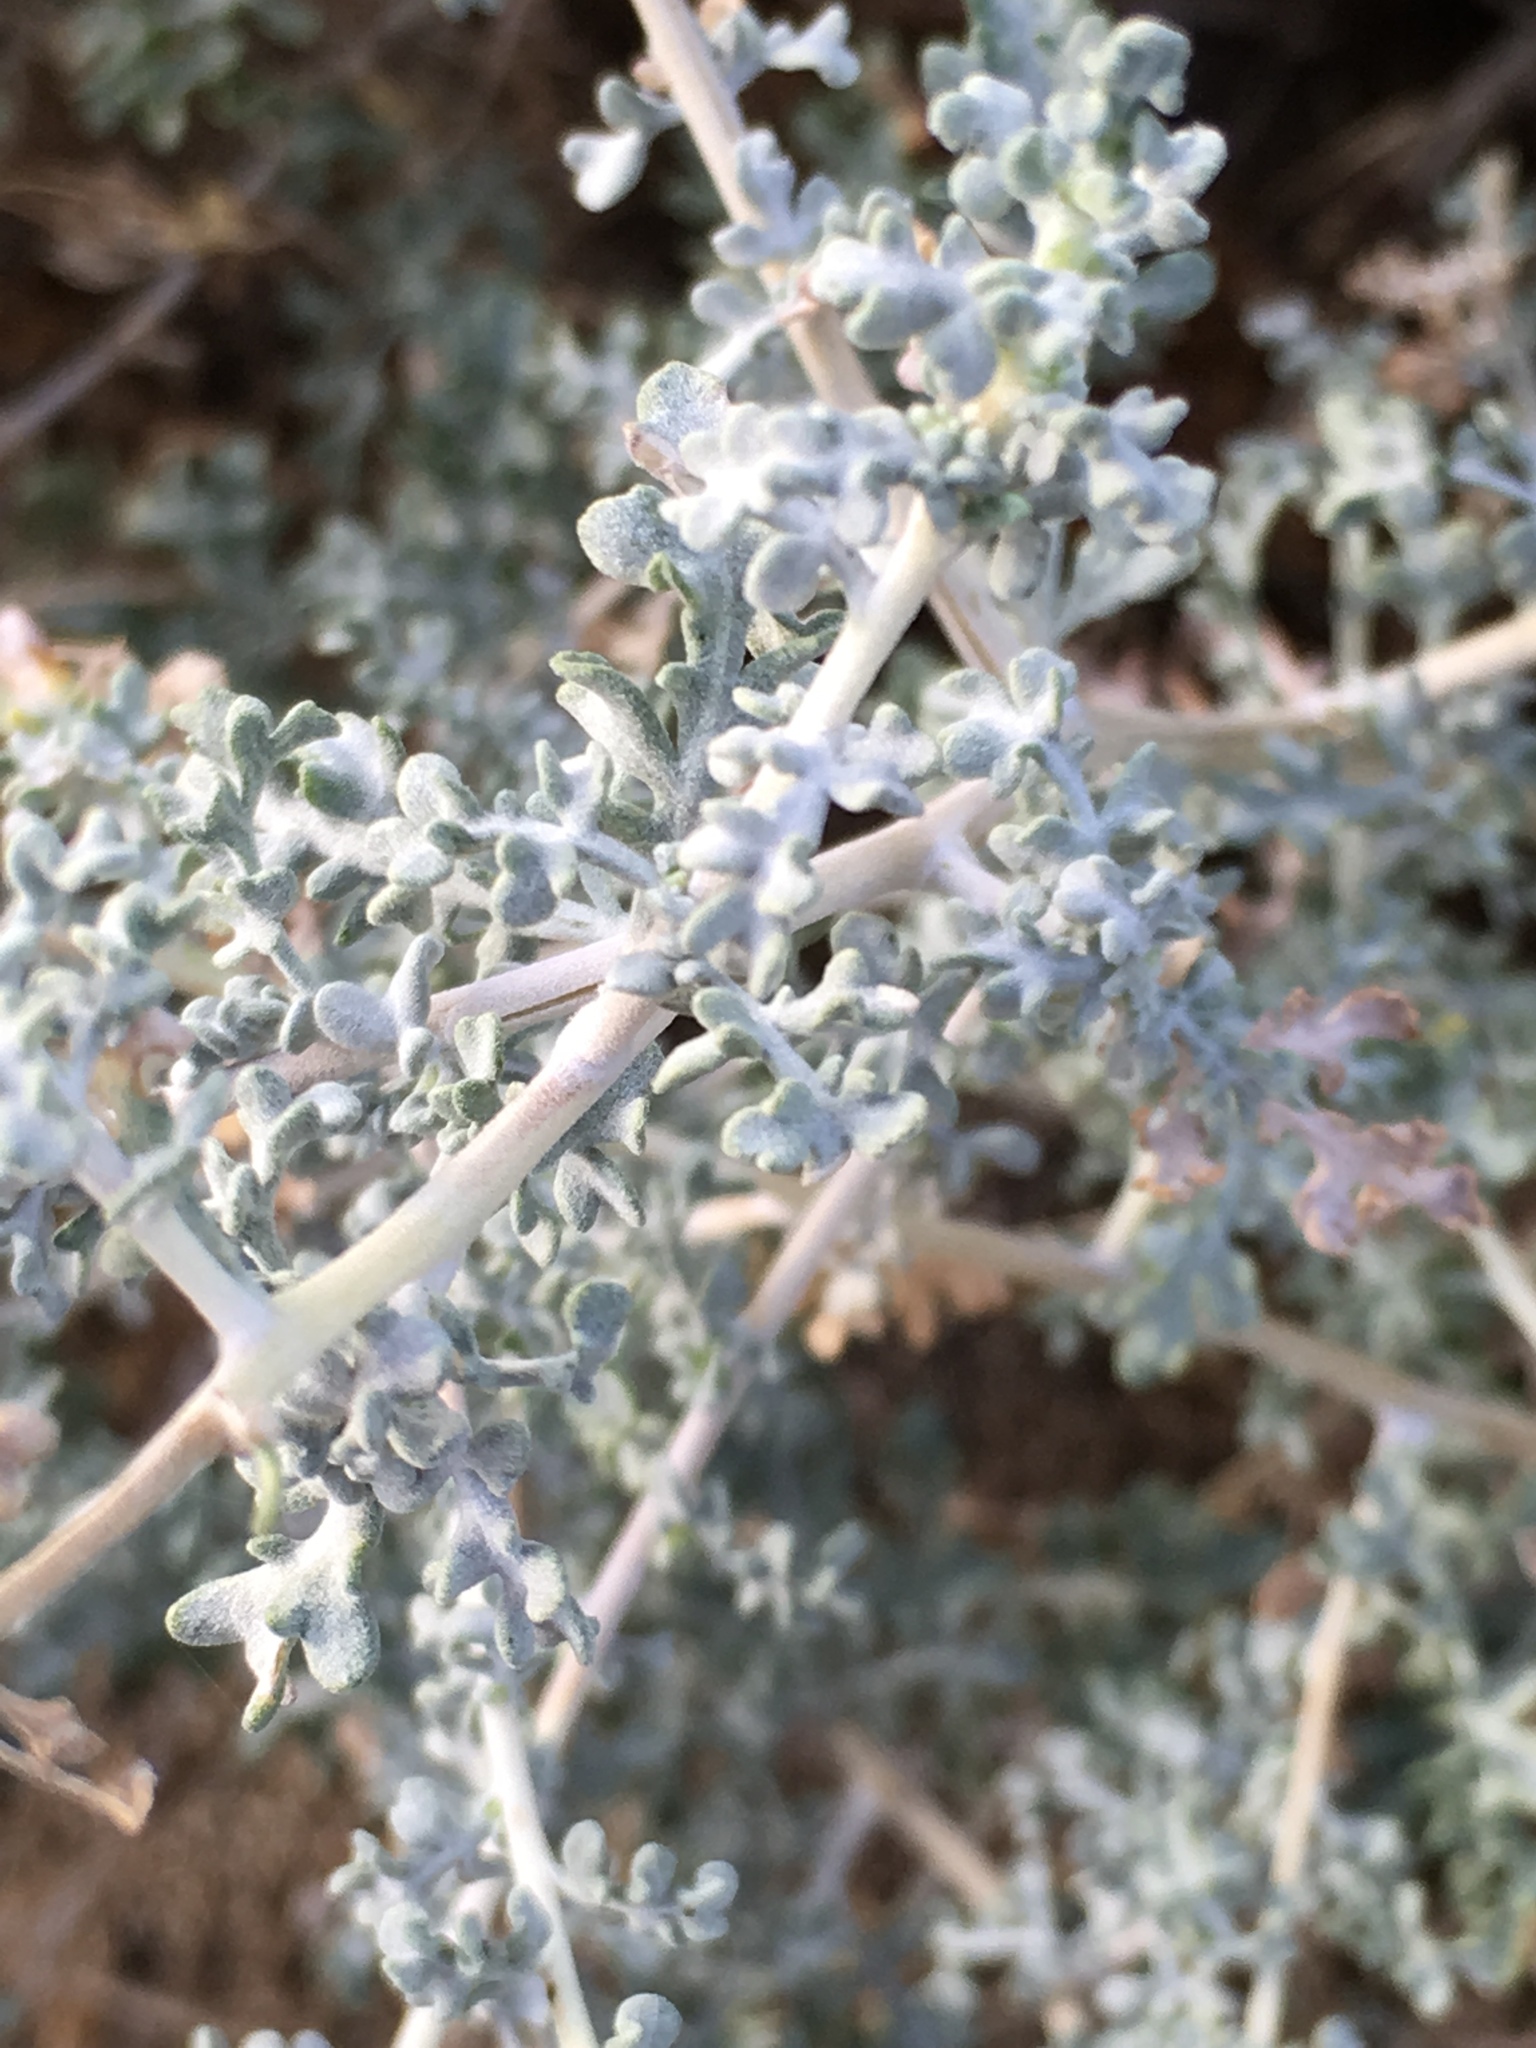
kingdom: Plantae
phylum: Tracheophyta
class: Magnoliopsida
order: Asterales
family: Asteraceae
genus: Ambrosia
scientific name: Ambrosia dumosa
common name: Bur-sage
